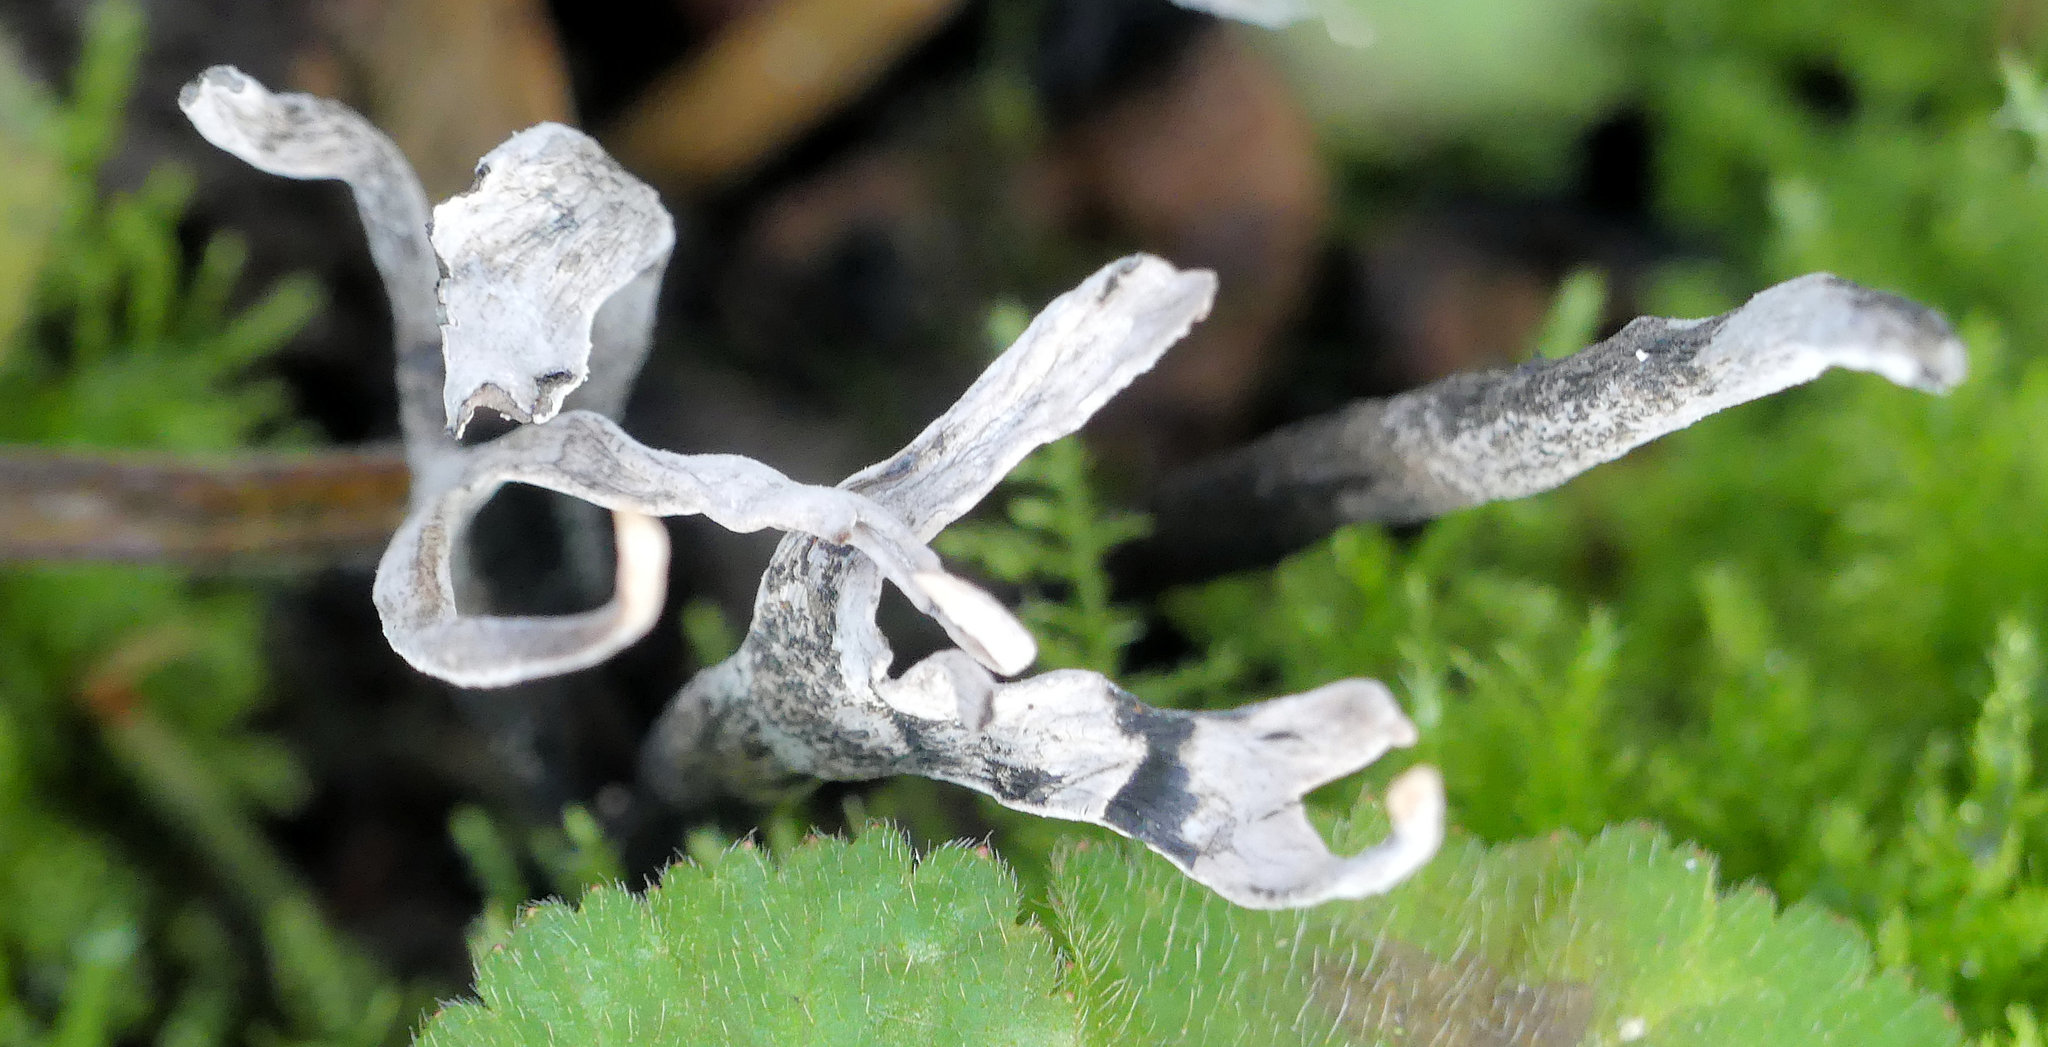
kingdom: Fungi
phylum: Ascomycota
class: Sordariomycetes
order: Xylariales
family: Xylariaceae
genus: Xylaria
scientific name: Xylaria hypoxylon
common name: Candle-snuff fungus
